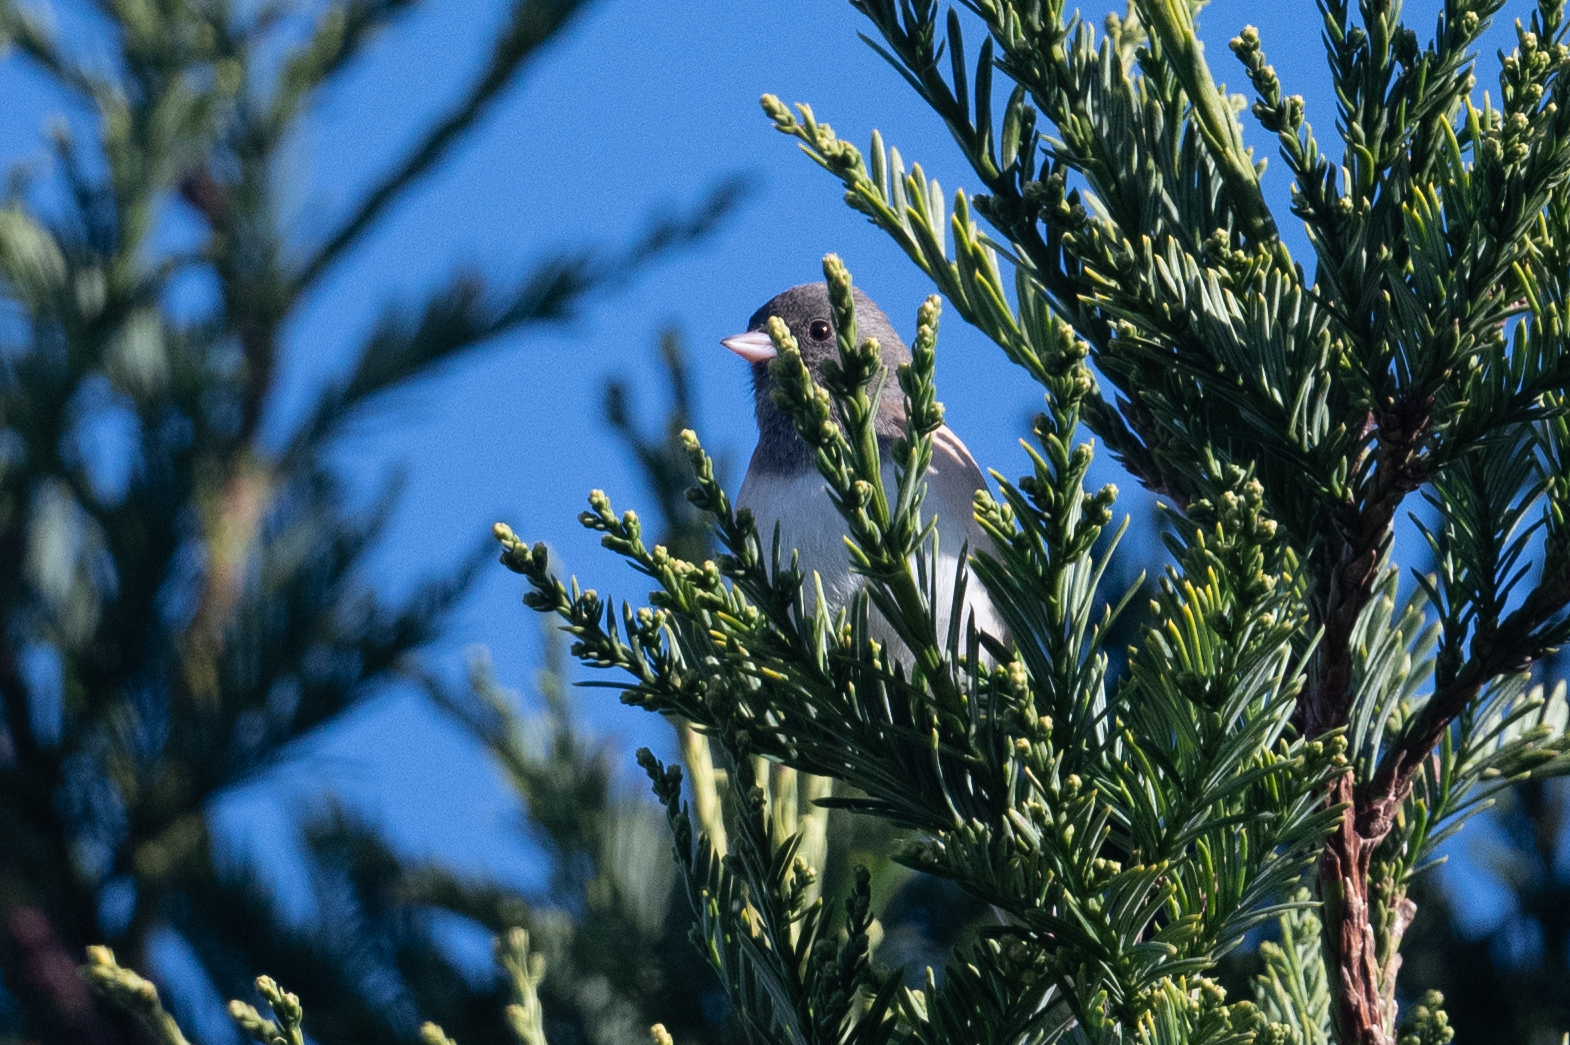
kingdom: Animalia
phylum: Chordata
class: Aves
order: Passeriformes
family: Passerellidae
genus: Junco
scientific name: Junco hyemalis
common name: Dark-eyed junco
